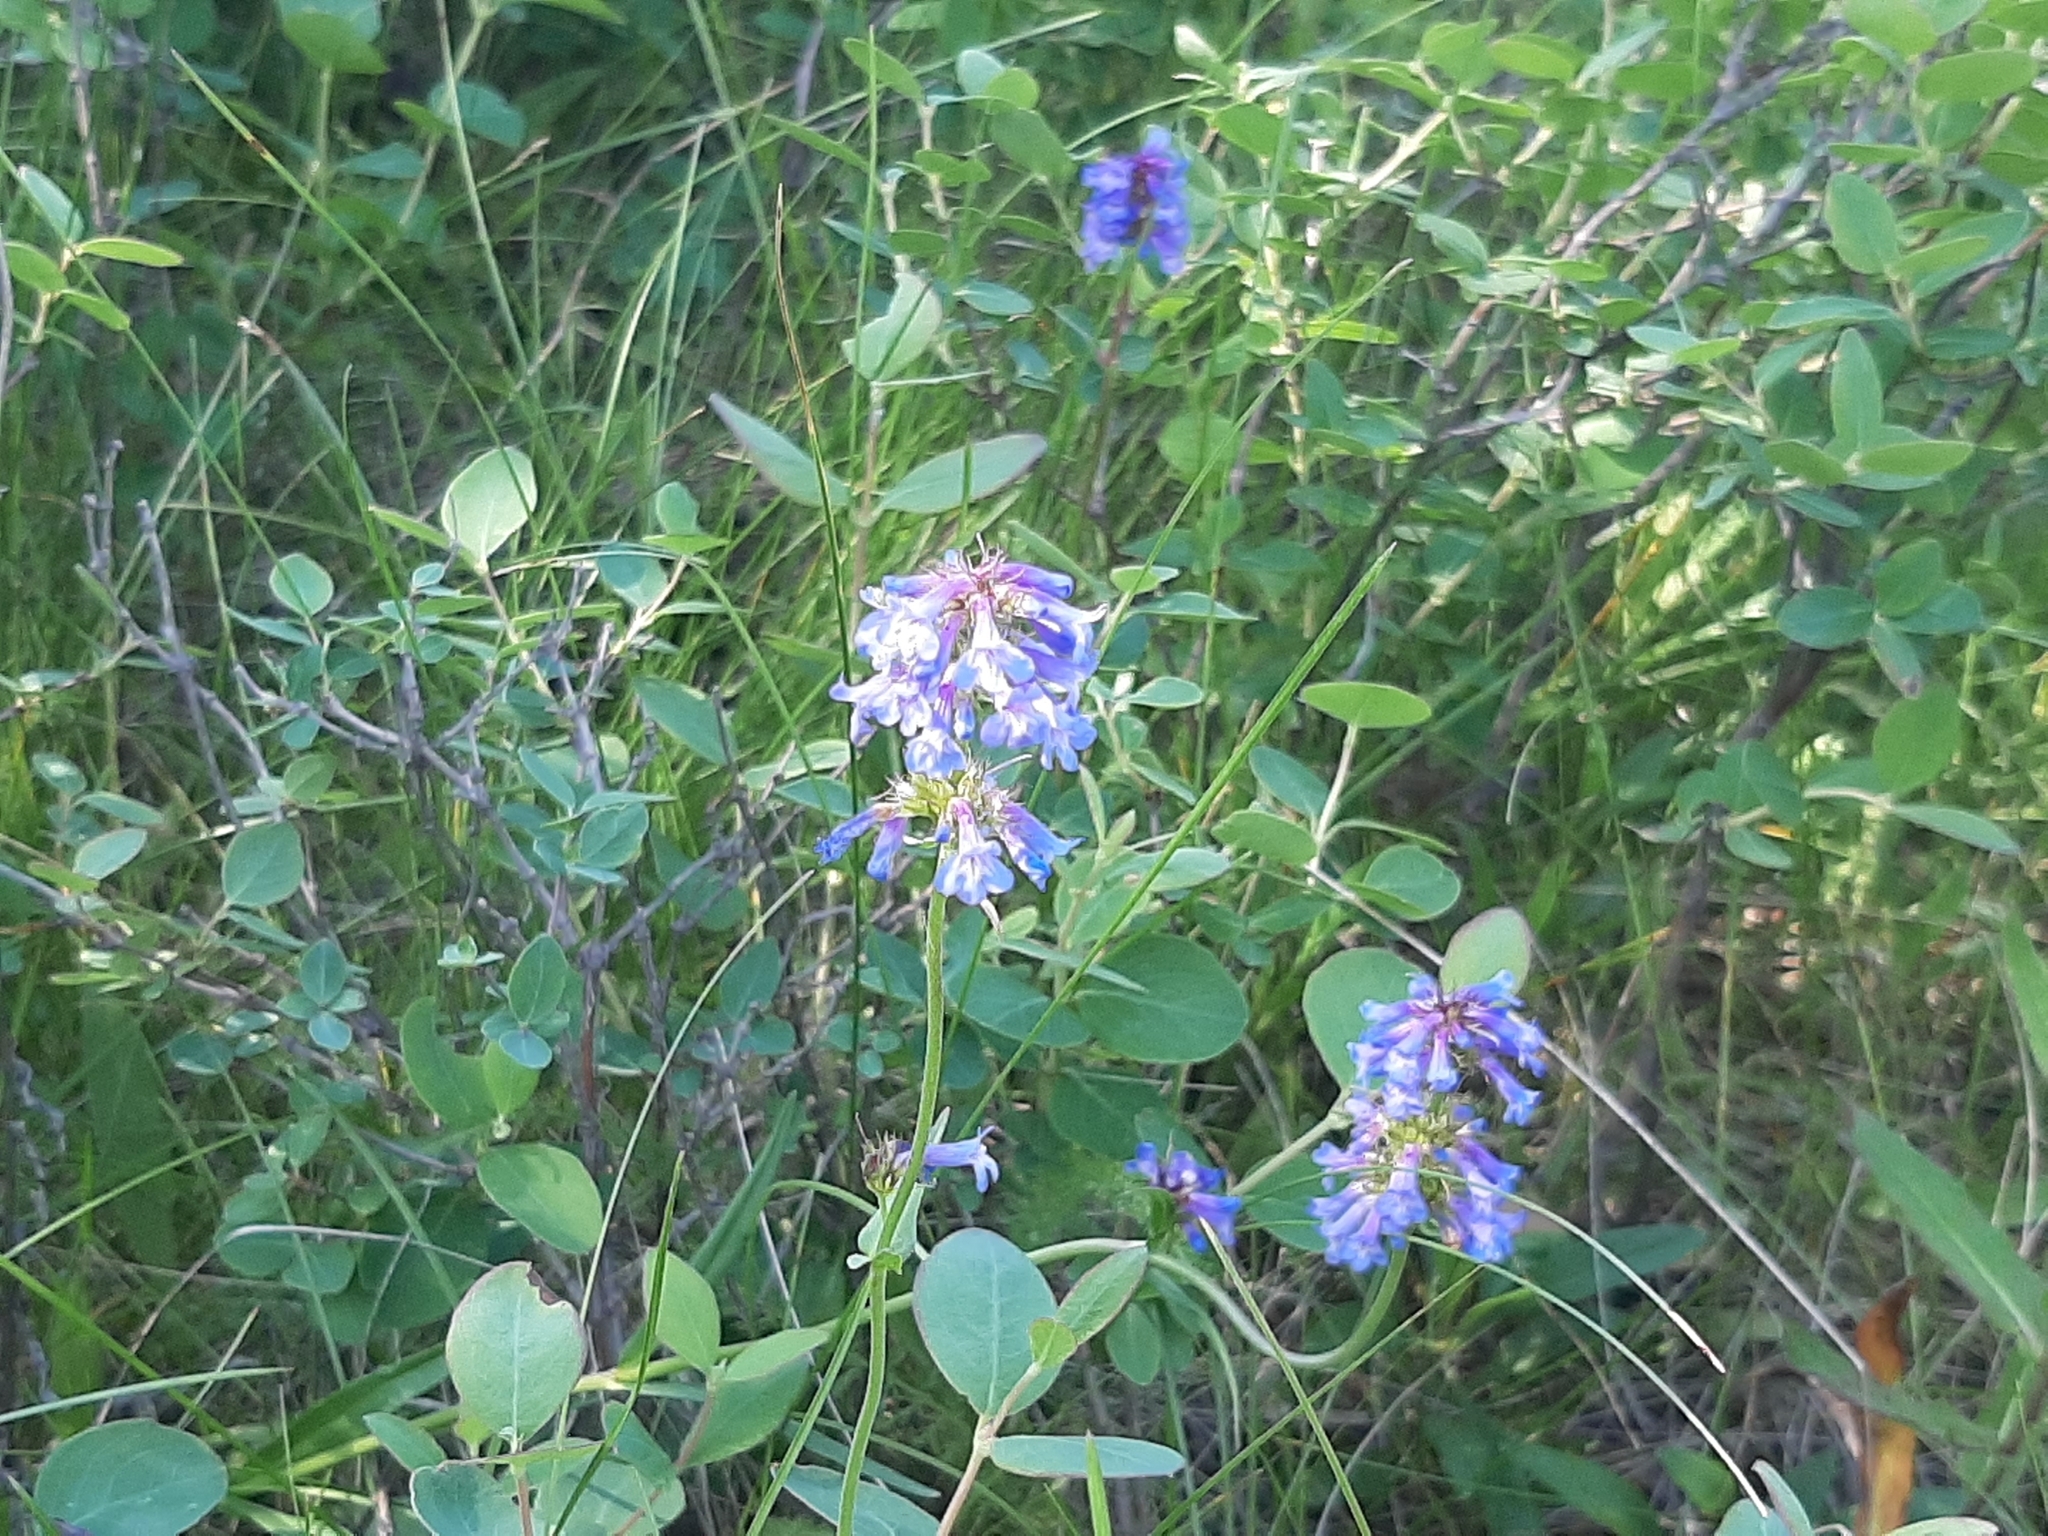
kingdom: Plantae
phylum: Tracheophyta
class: Magnoliopsida
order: Lamiales
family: Plantaginaceae
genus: Penstemon
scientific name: Penstemon procerus
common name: Small-flower penstemon
